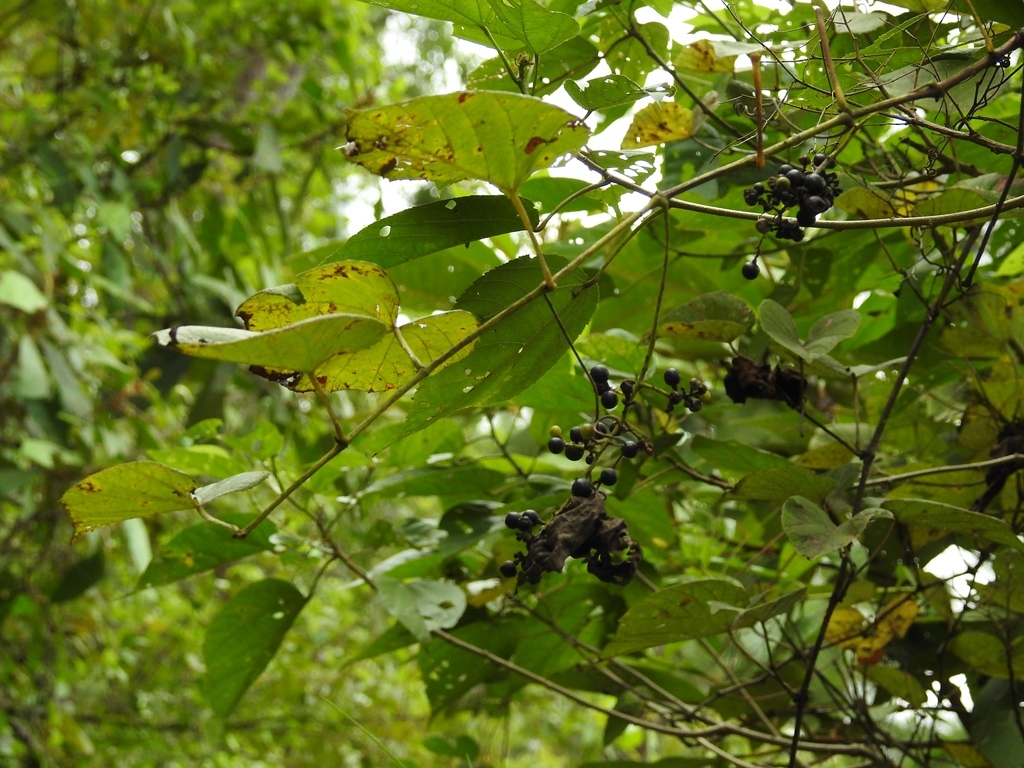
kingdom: Plantae
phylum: Tracheophyta
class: Magnoliopsida
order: Vitales
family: Vitaceae
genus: Vitis
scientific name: Vitis tiliifolia
